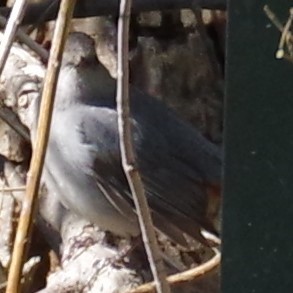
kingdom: Animalia
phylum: Chordata
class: Aves
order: Passeriformes
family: Mimidae
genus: Dumetella
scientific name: Dumetella carolinensis
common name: Gray catbird
